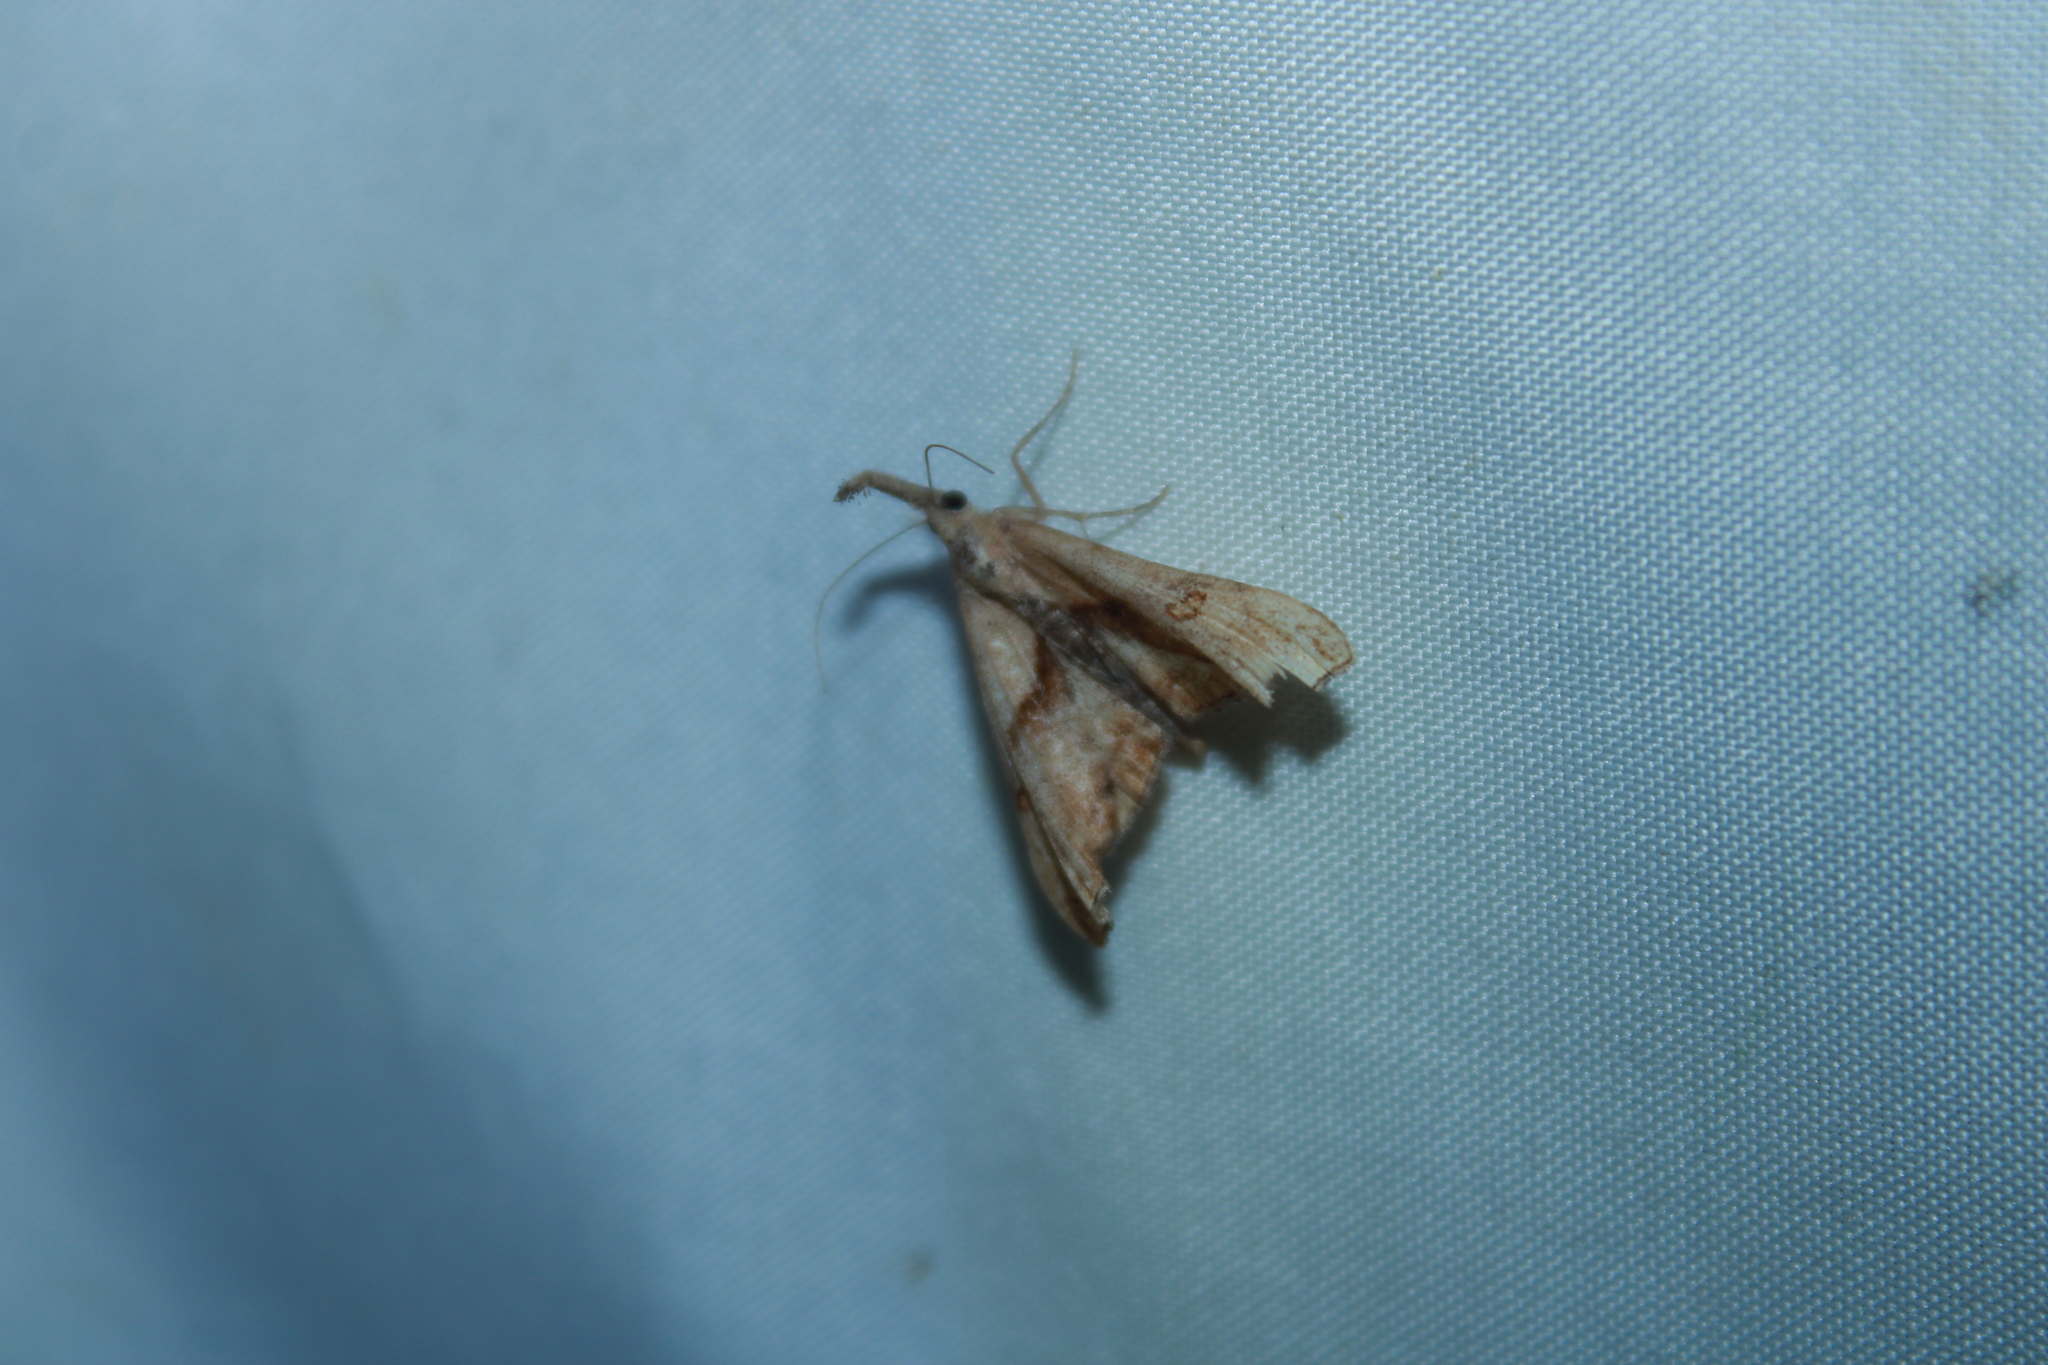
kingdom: Animalia
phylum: Arthropoda
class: Insecta
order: Lepidoptera
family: Erebidae
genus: Palthis
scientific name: Palthis angulalis
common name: Dark-spotted palthis moth
